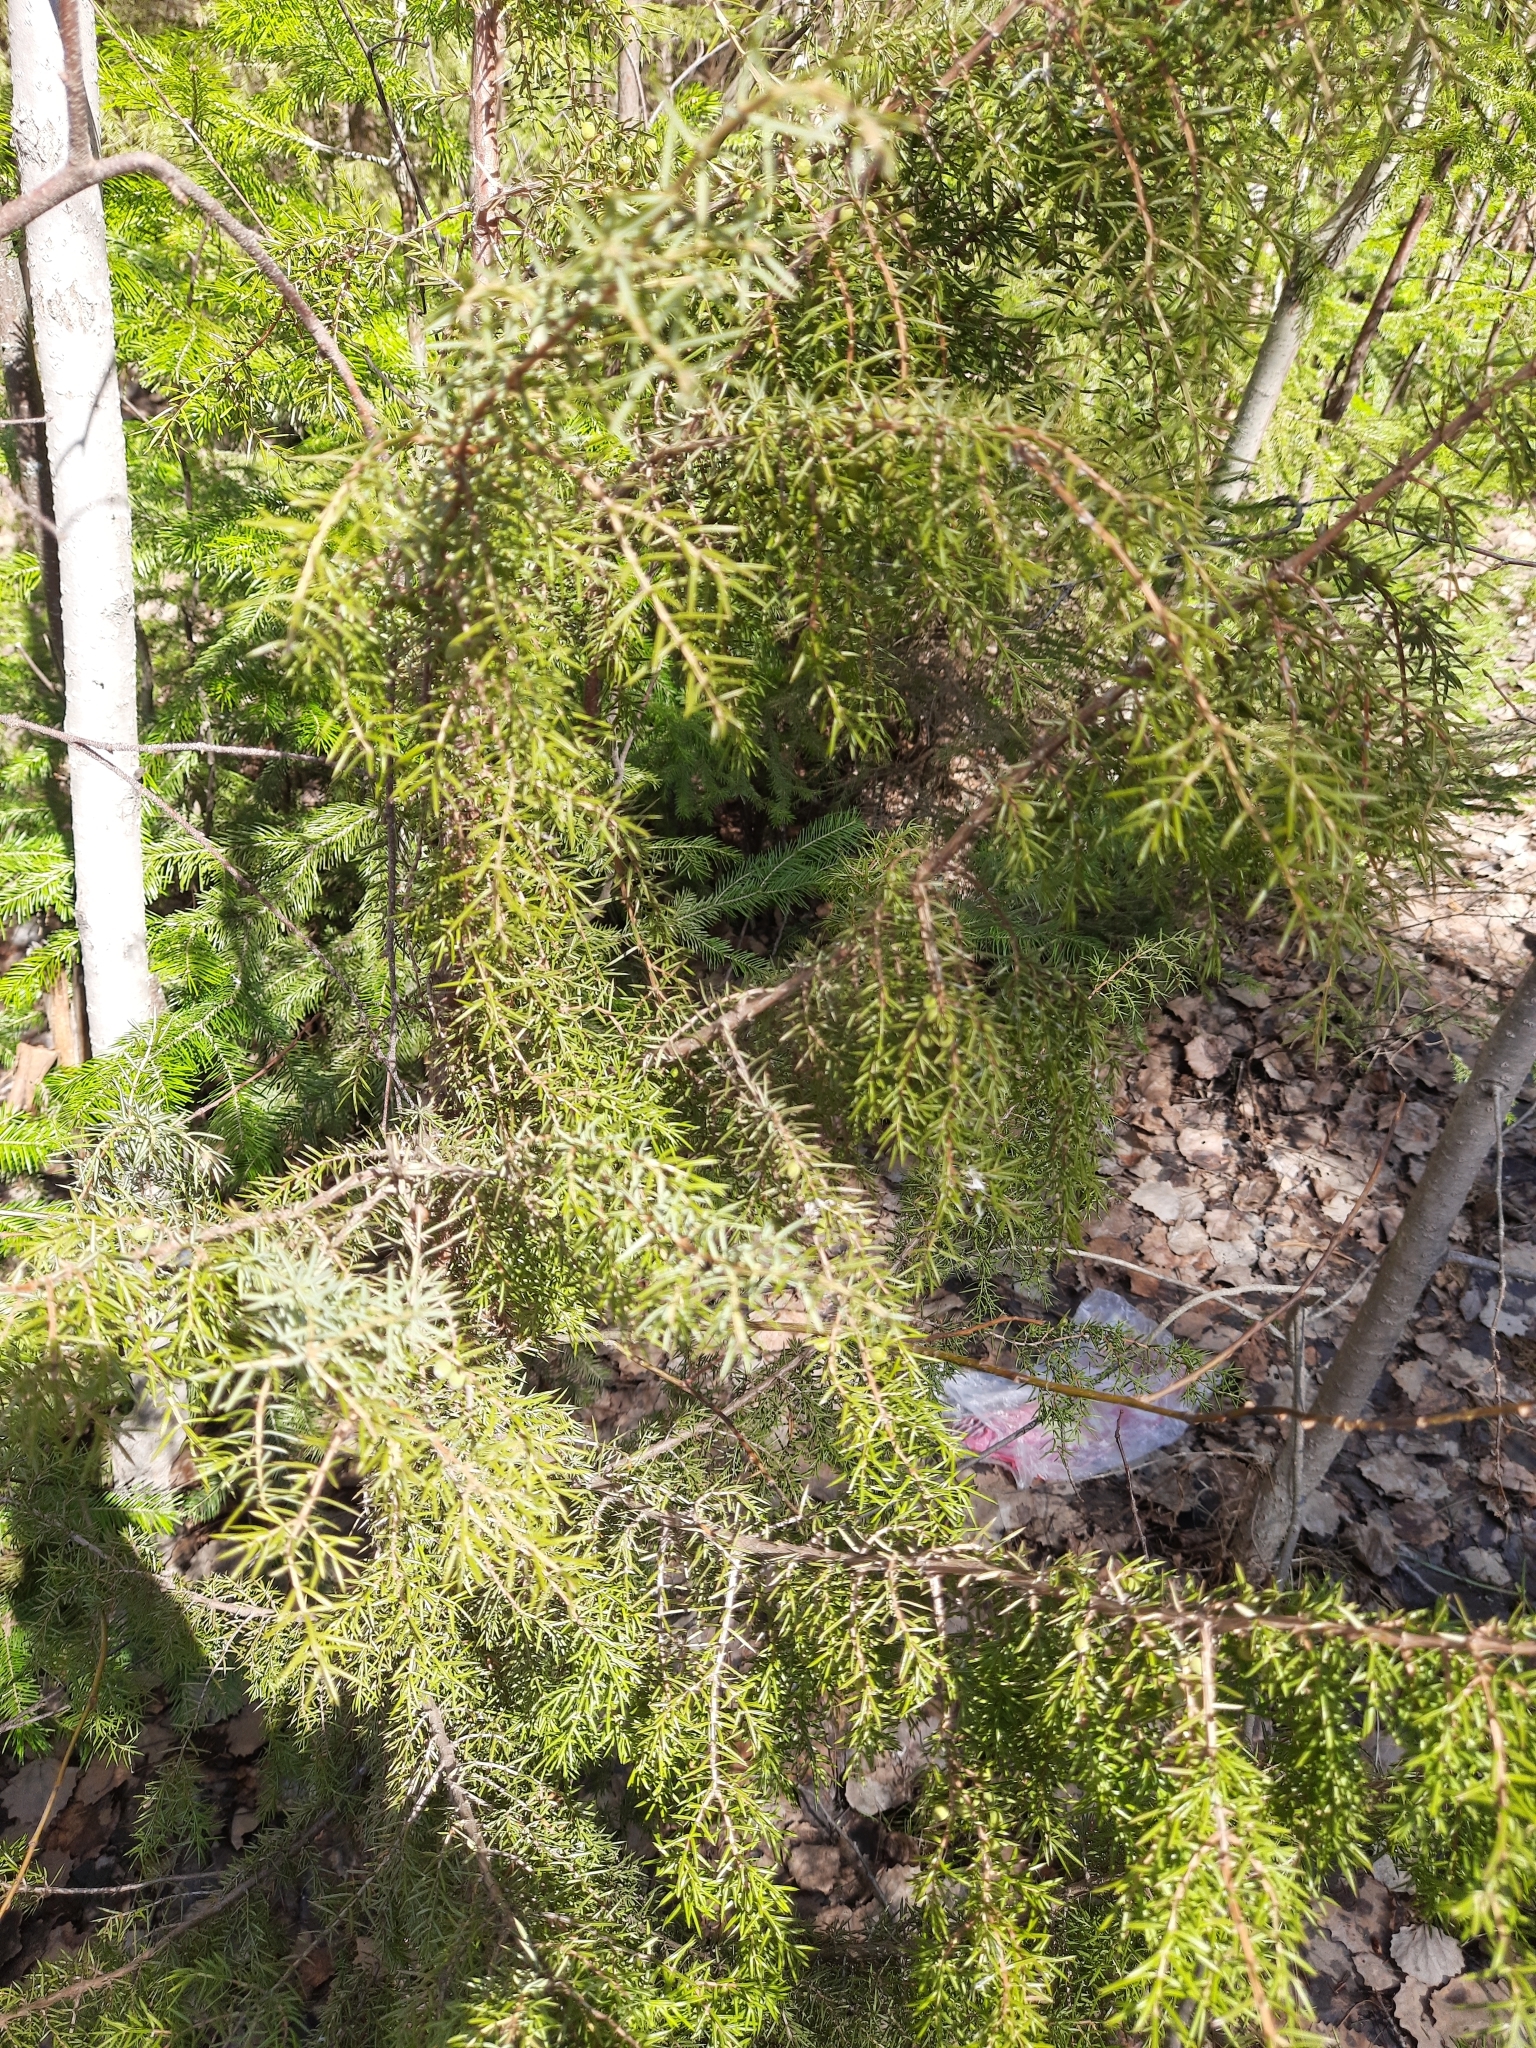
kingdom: Plantae
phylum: Tracheophyta
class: Pinopsida
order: Pinales
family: Cupressaceae
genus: Juniperus
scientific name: Juniperus communis
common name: Common juniper
